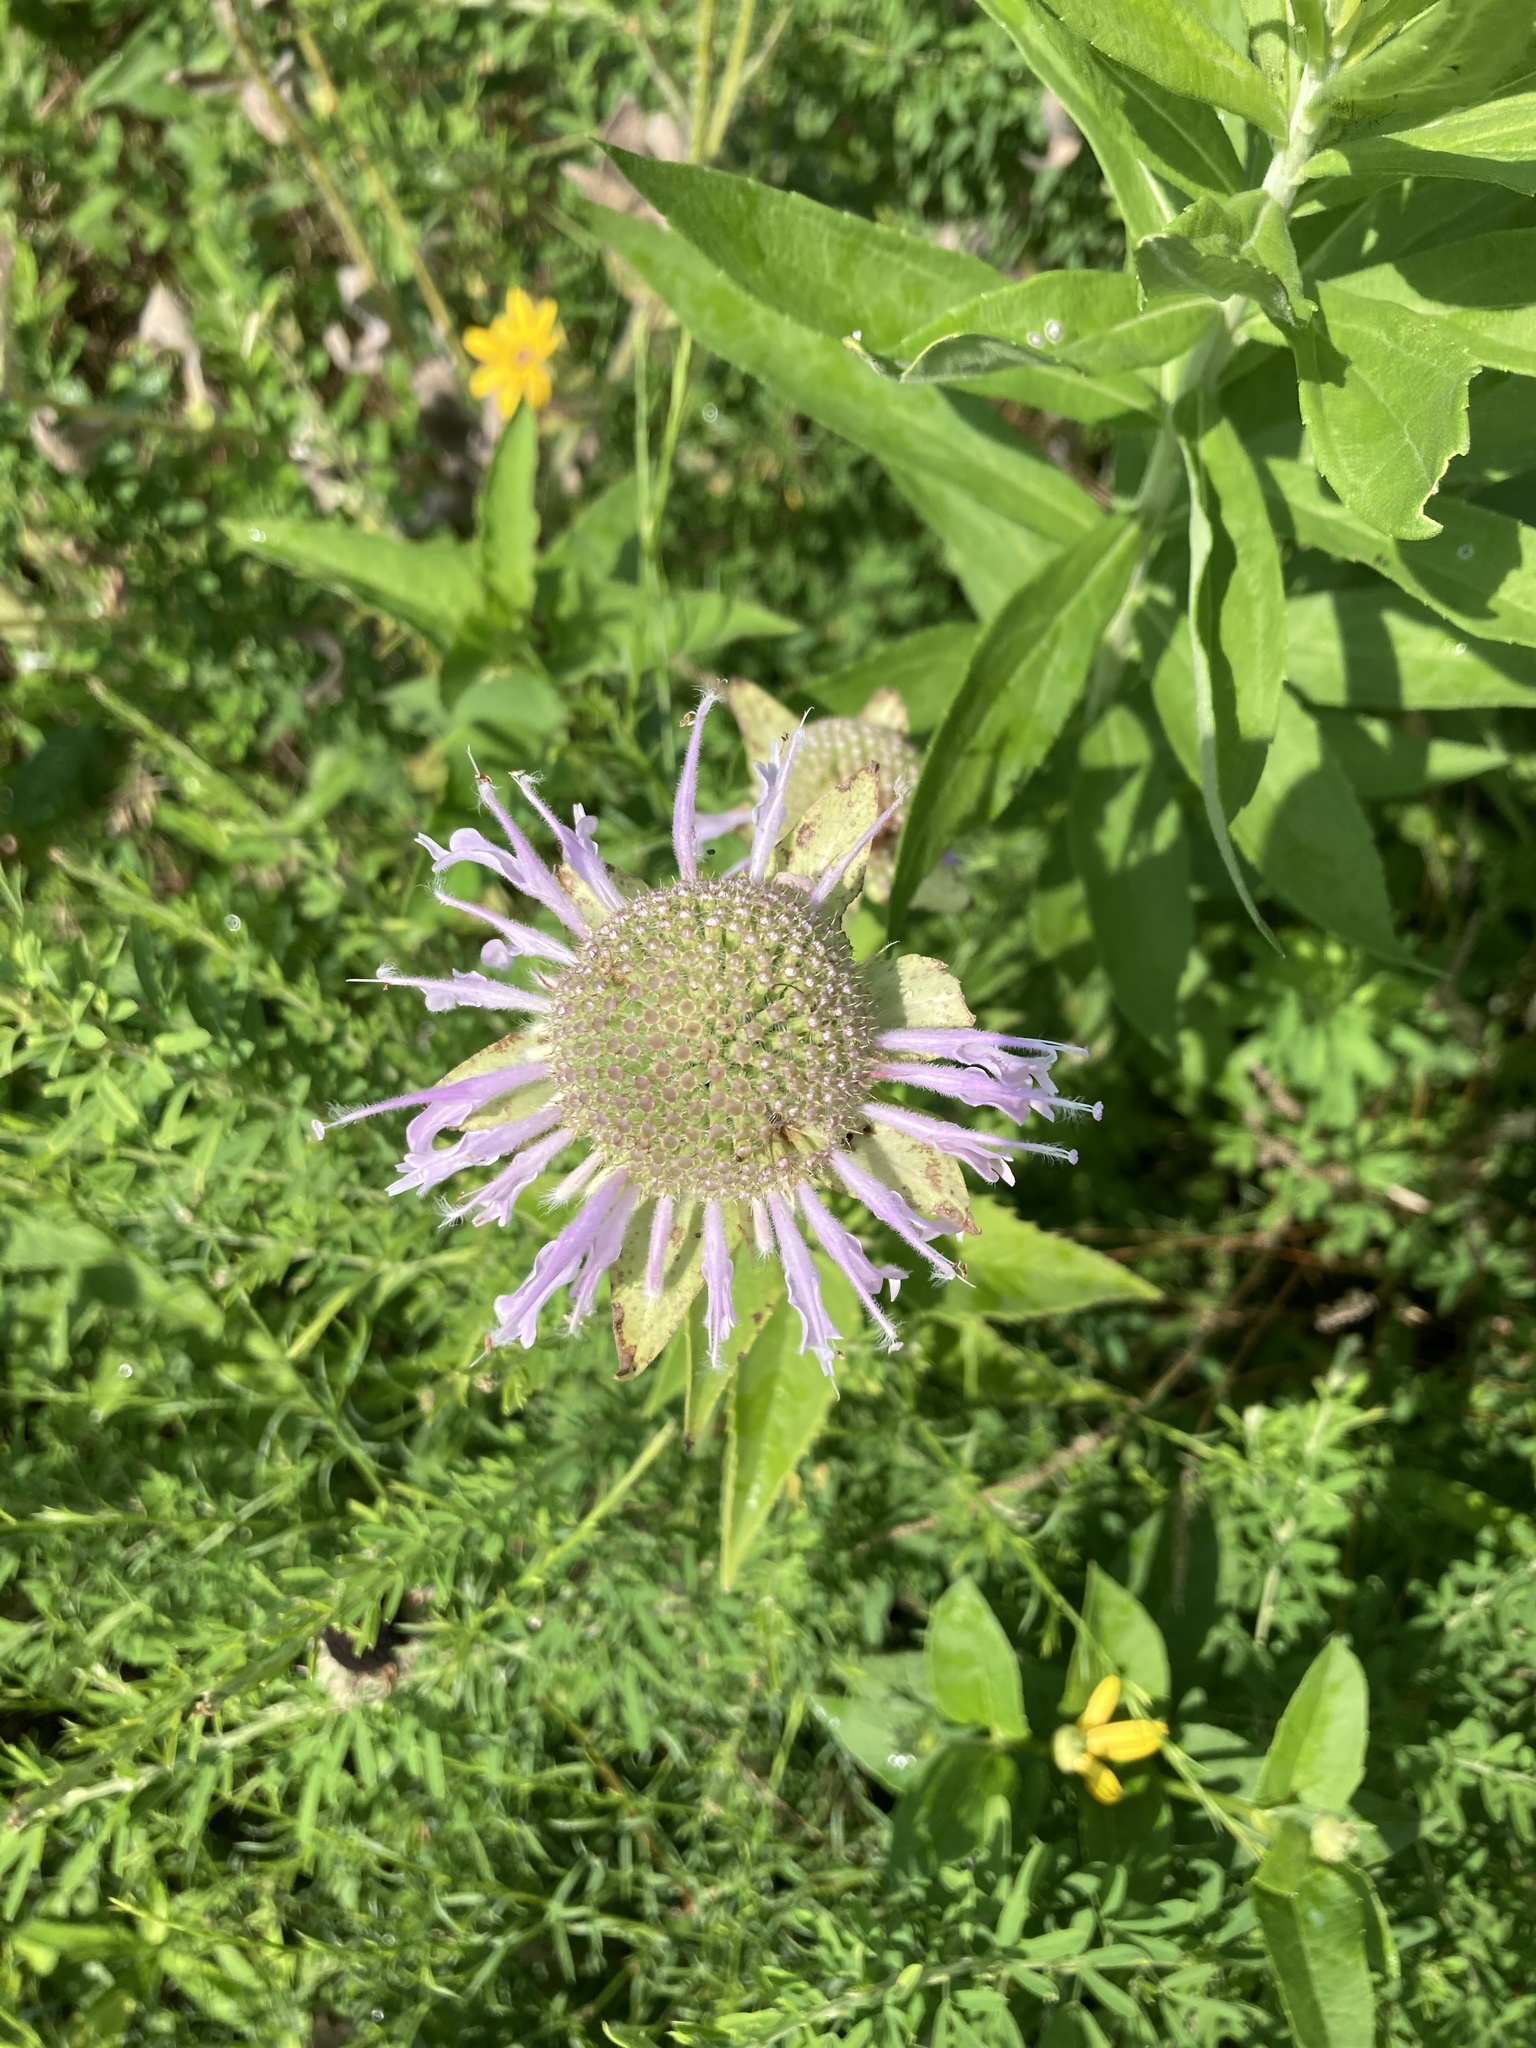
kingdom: Plantae
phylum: Tracheophyta
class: Magnoliopsida
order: Lamiales
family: Lamiaceae
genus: Monarda
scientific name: Monarda fistulosa
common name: Purple beebalm
